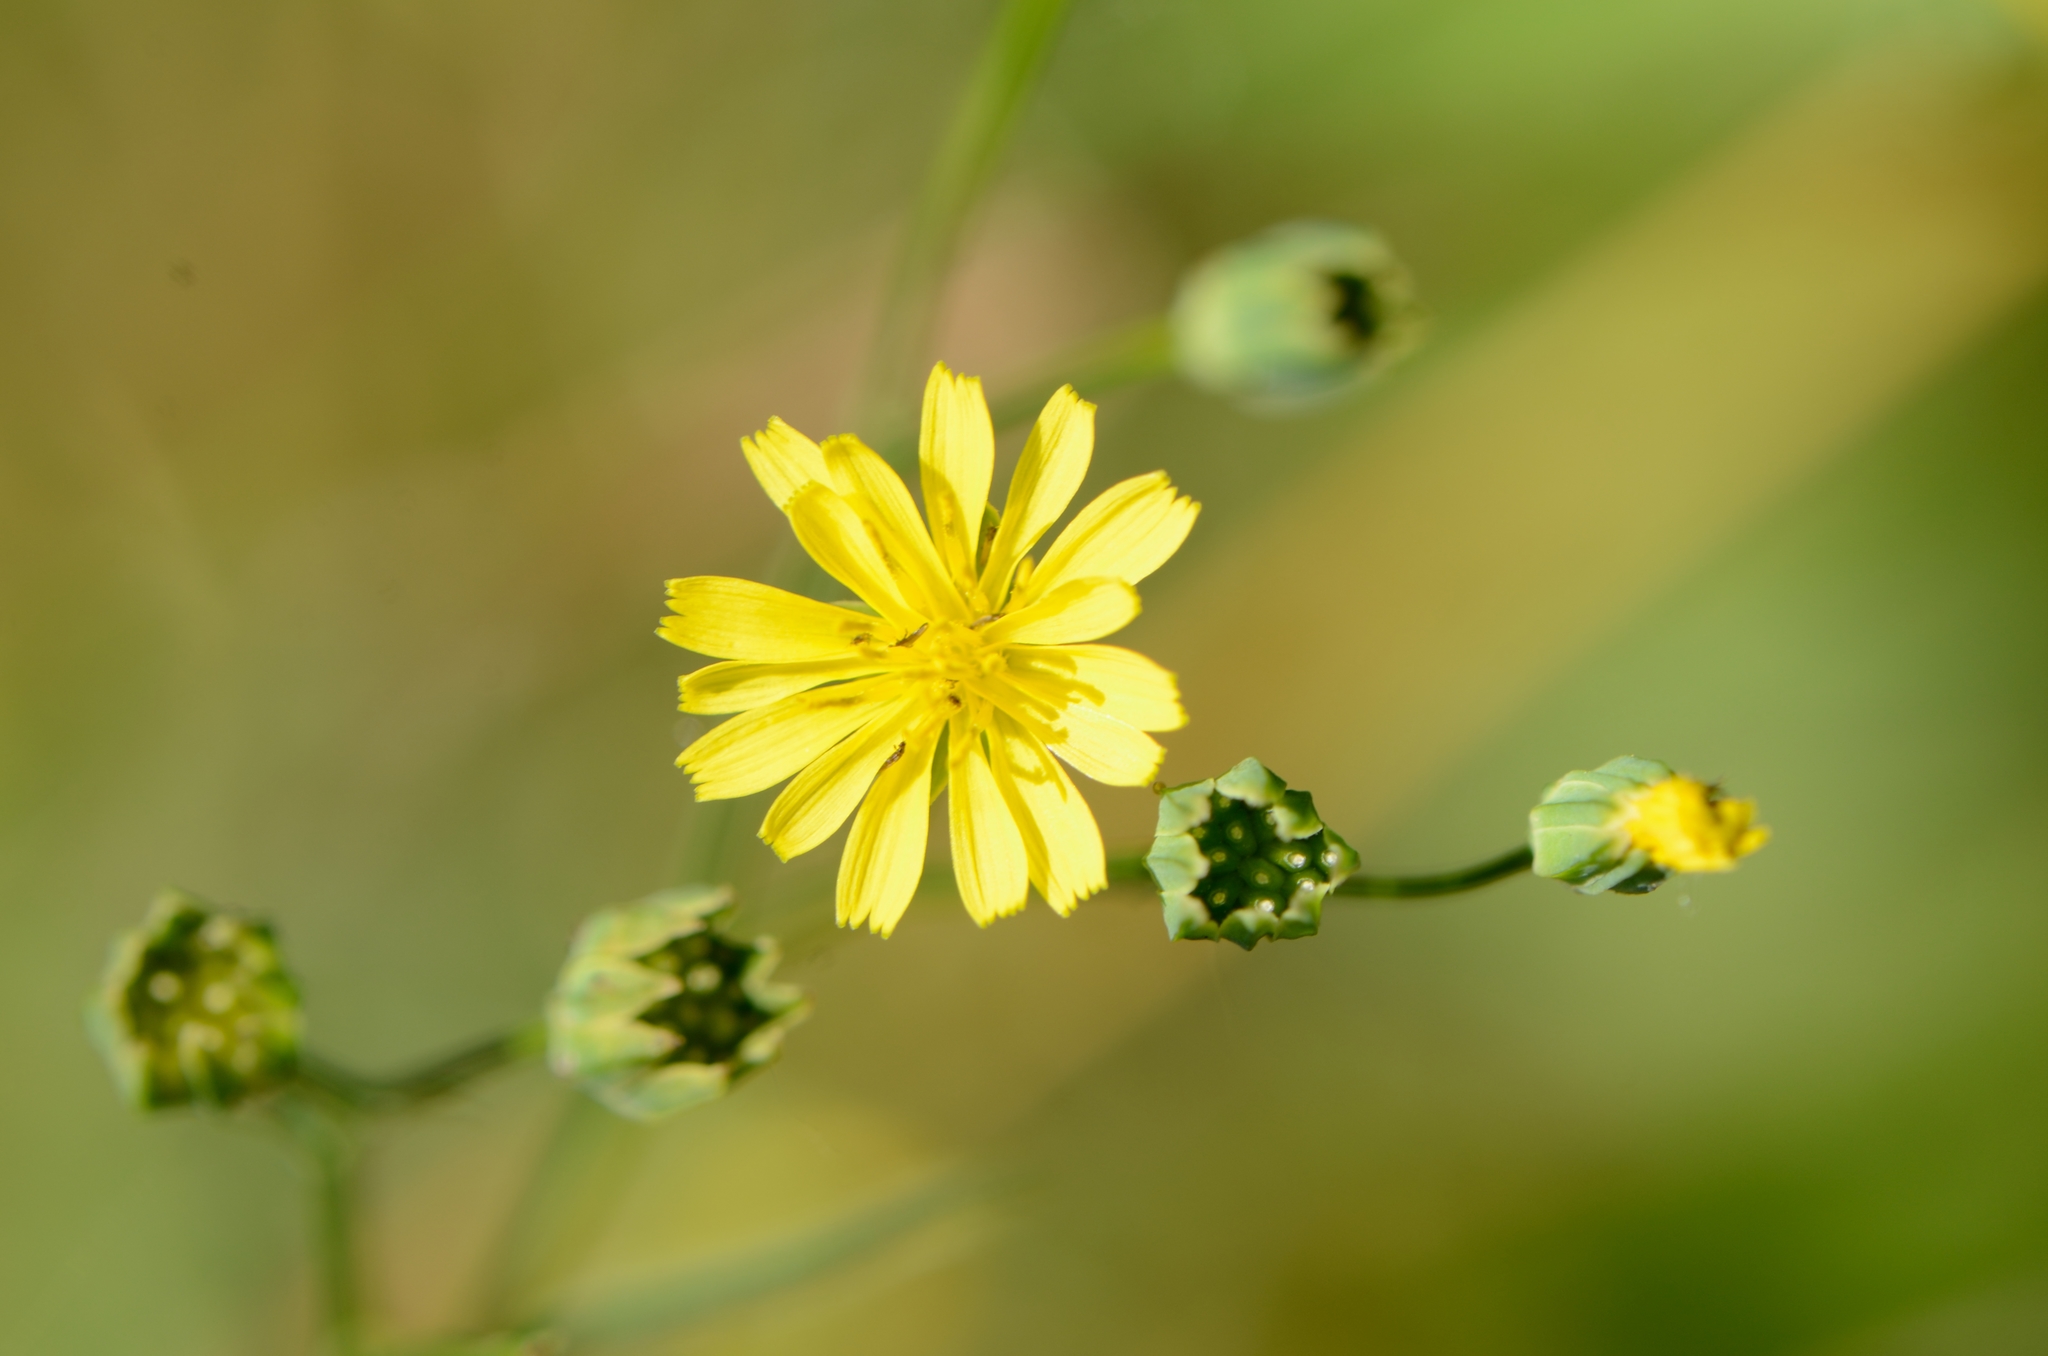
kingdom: Plantae
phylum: Tracheophyta
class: Magnoliopsida
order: Asterales
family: Asteraceae
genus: Lapsana
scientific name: Lapsana communis
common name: Nipplewort
